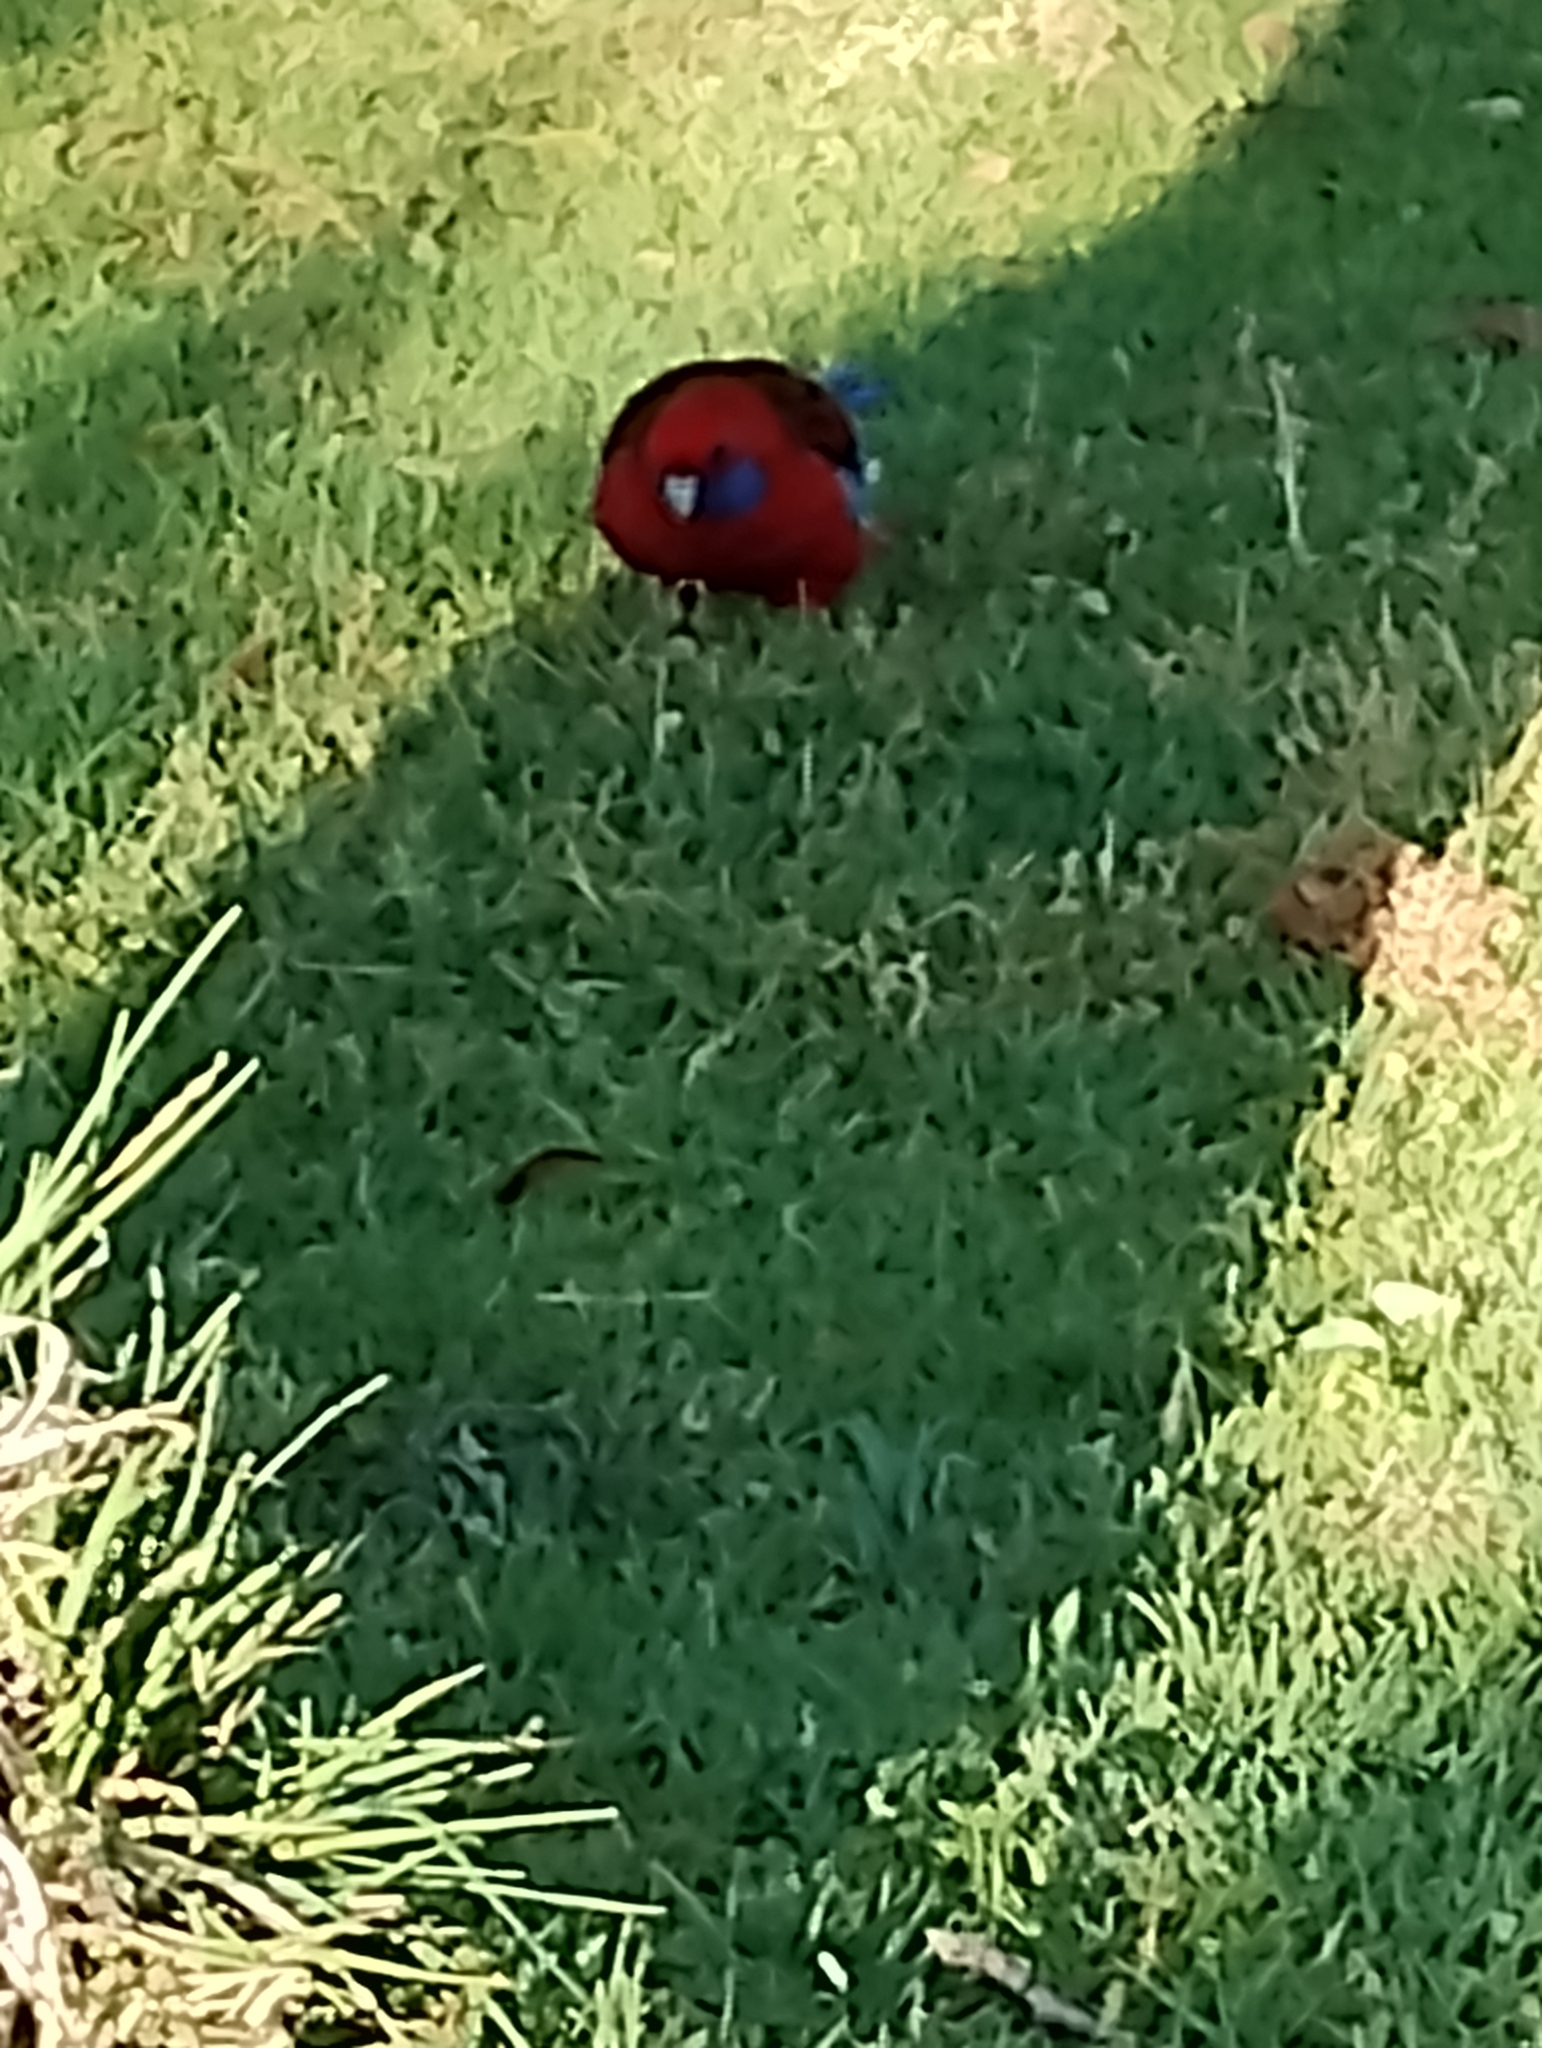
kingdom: Animalia
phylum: Chordata
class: Aves
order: Psittaciformes
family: Psittacidae
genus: Platycercus
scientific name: Platycercus elegans
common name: Crimson rosella
